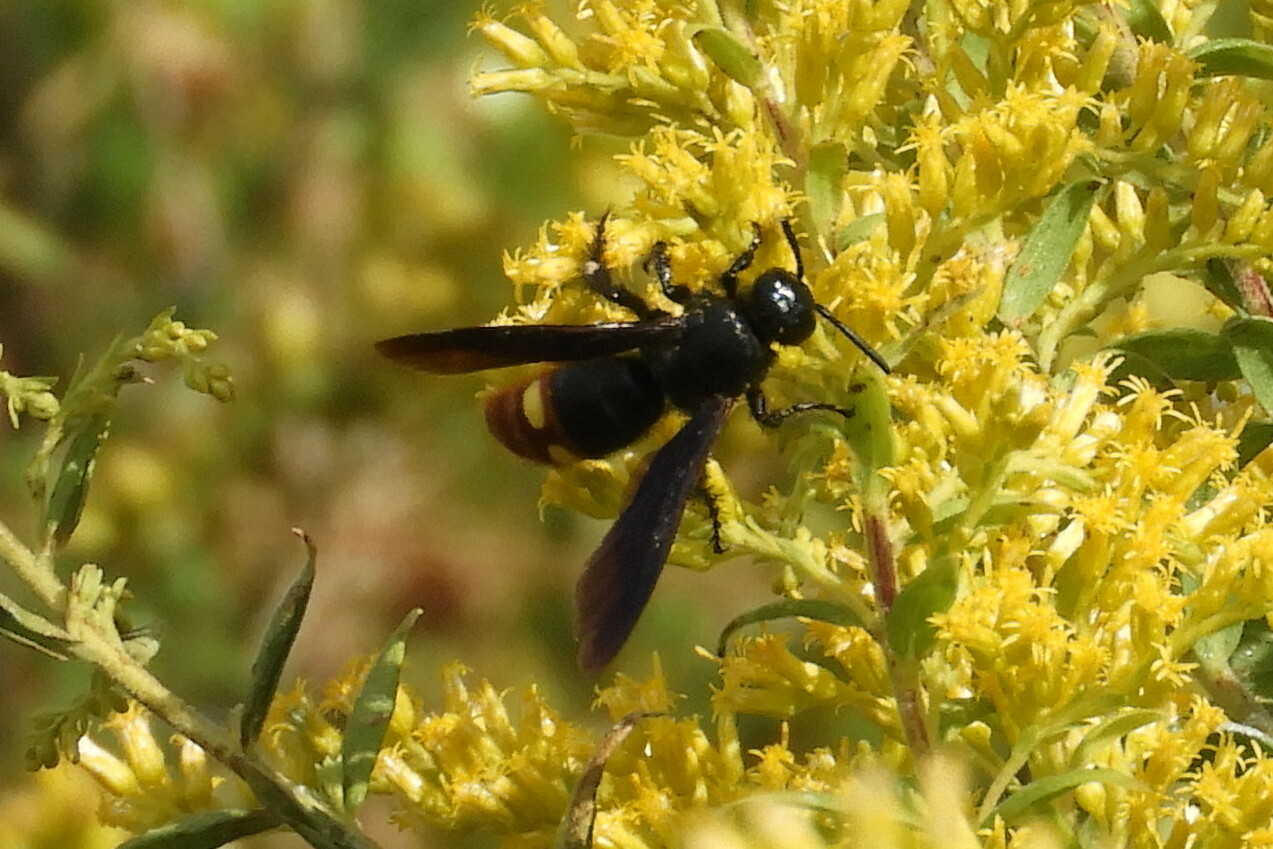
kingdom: Animalia
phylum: Arthropoda
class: Insecta
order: Hymenoptera
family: Scoliidae
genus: Scolia
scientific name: Scolia dubia
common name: Blue-winged scoliid wasp
